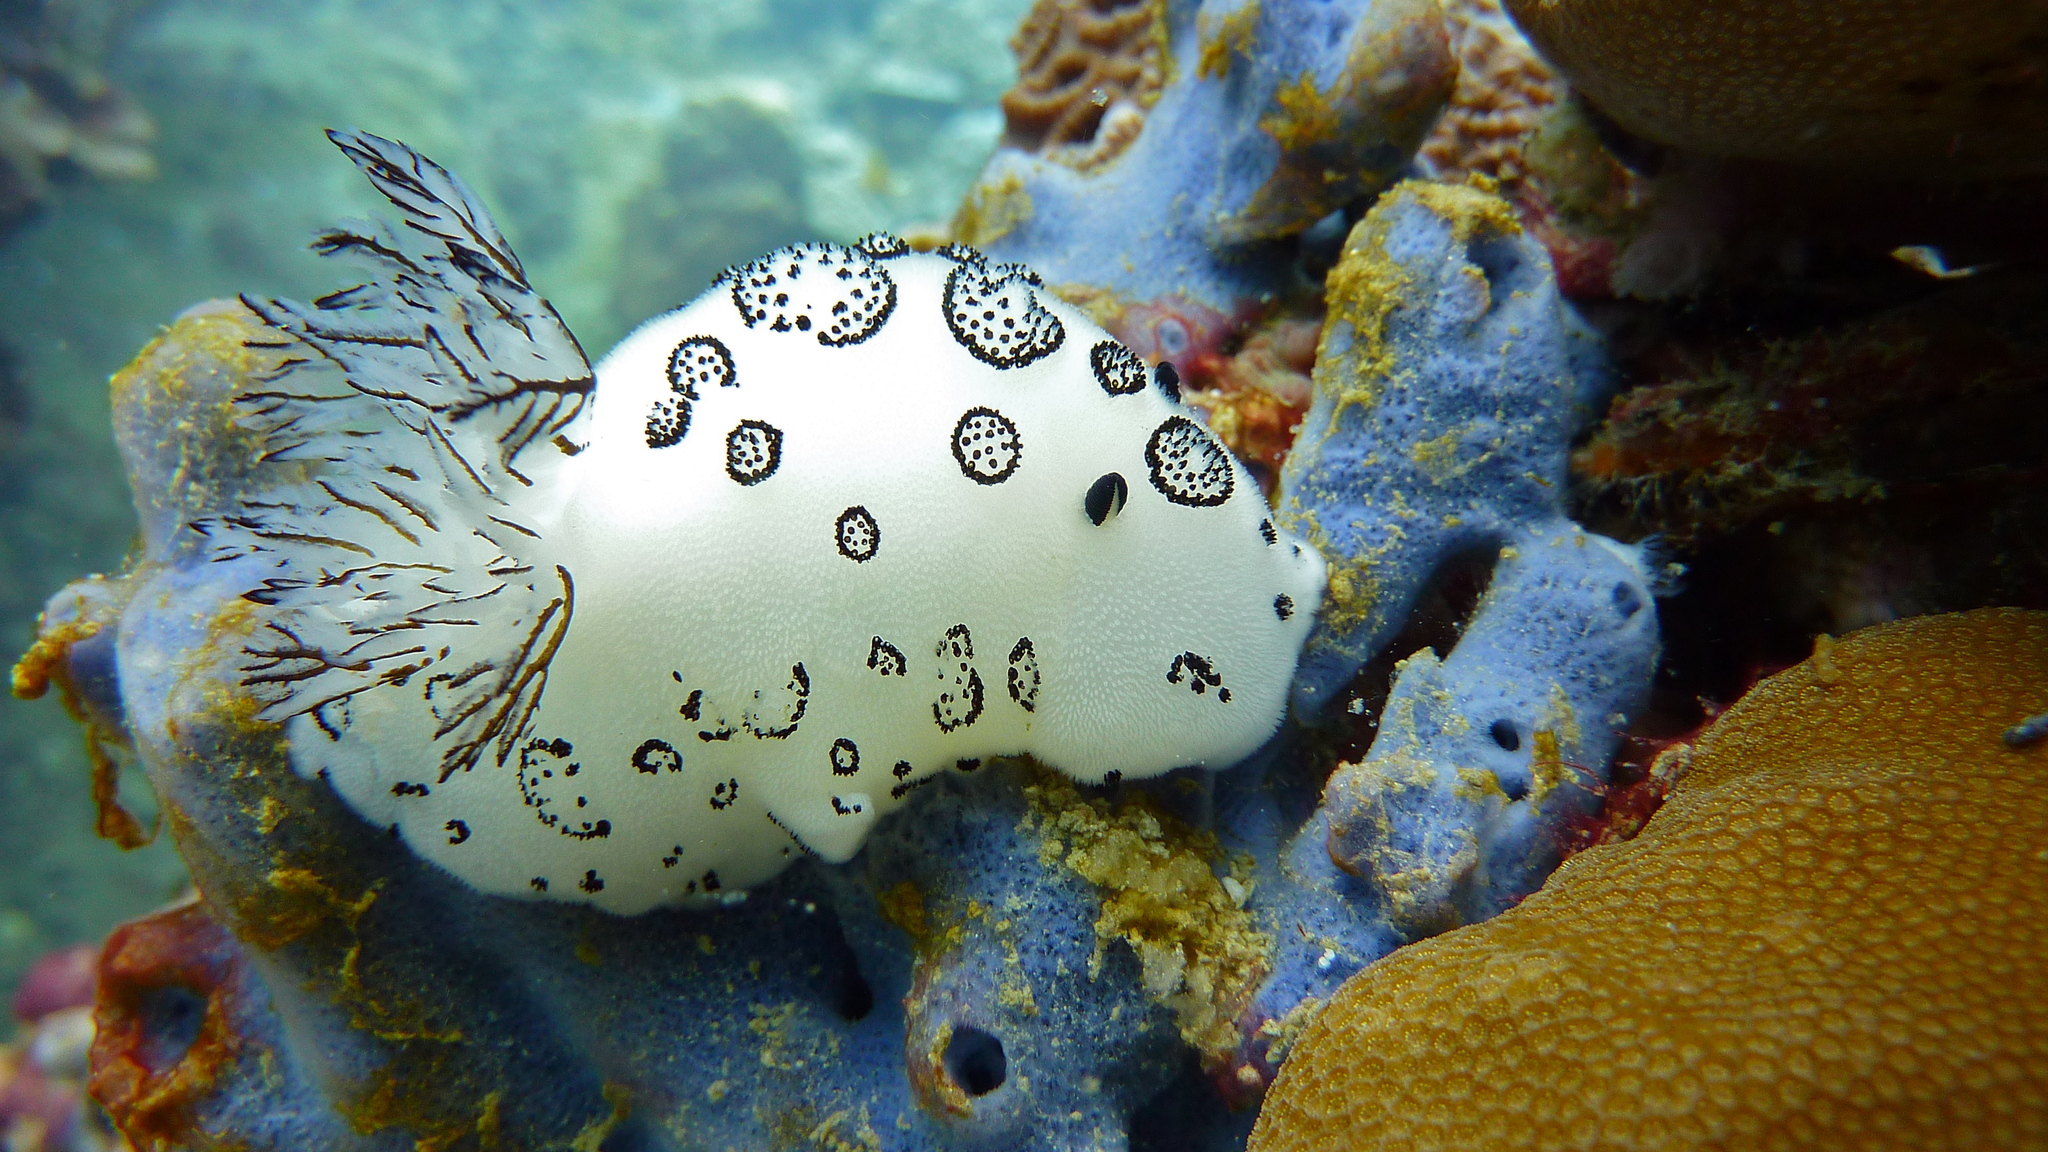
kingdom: Animalia
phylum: Mollusca
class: Gastropoda
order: Nudibranchia
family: Discodorididae
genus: Jorunna
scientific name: Jorunna funebris
